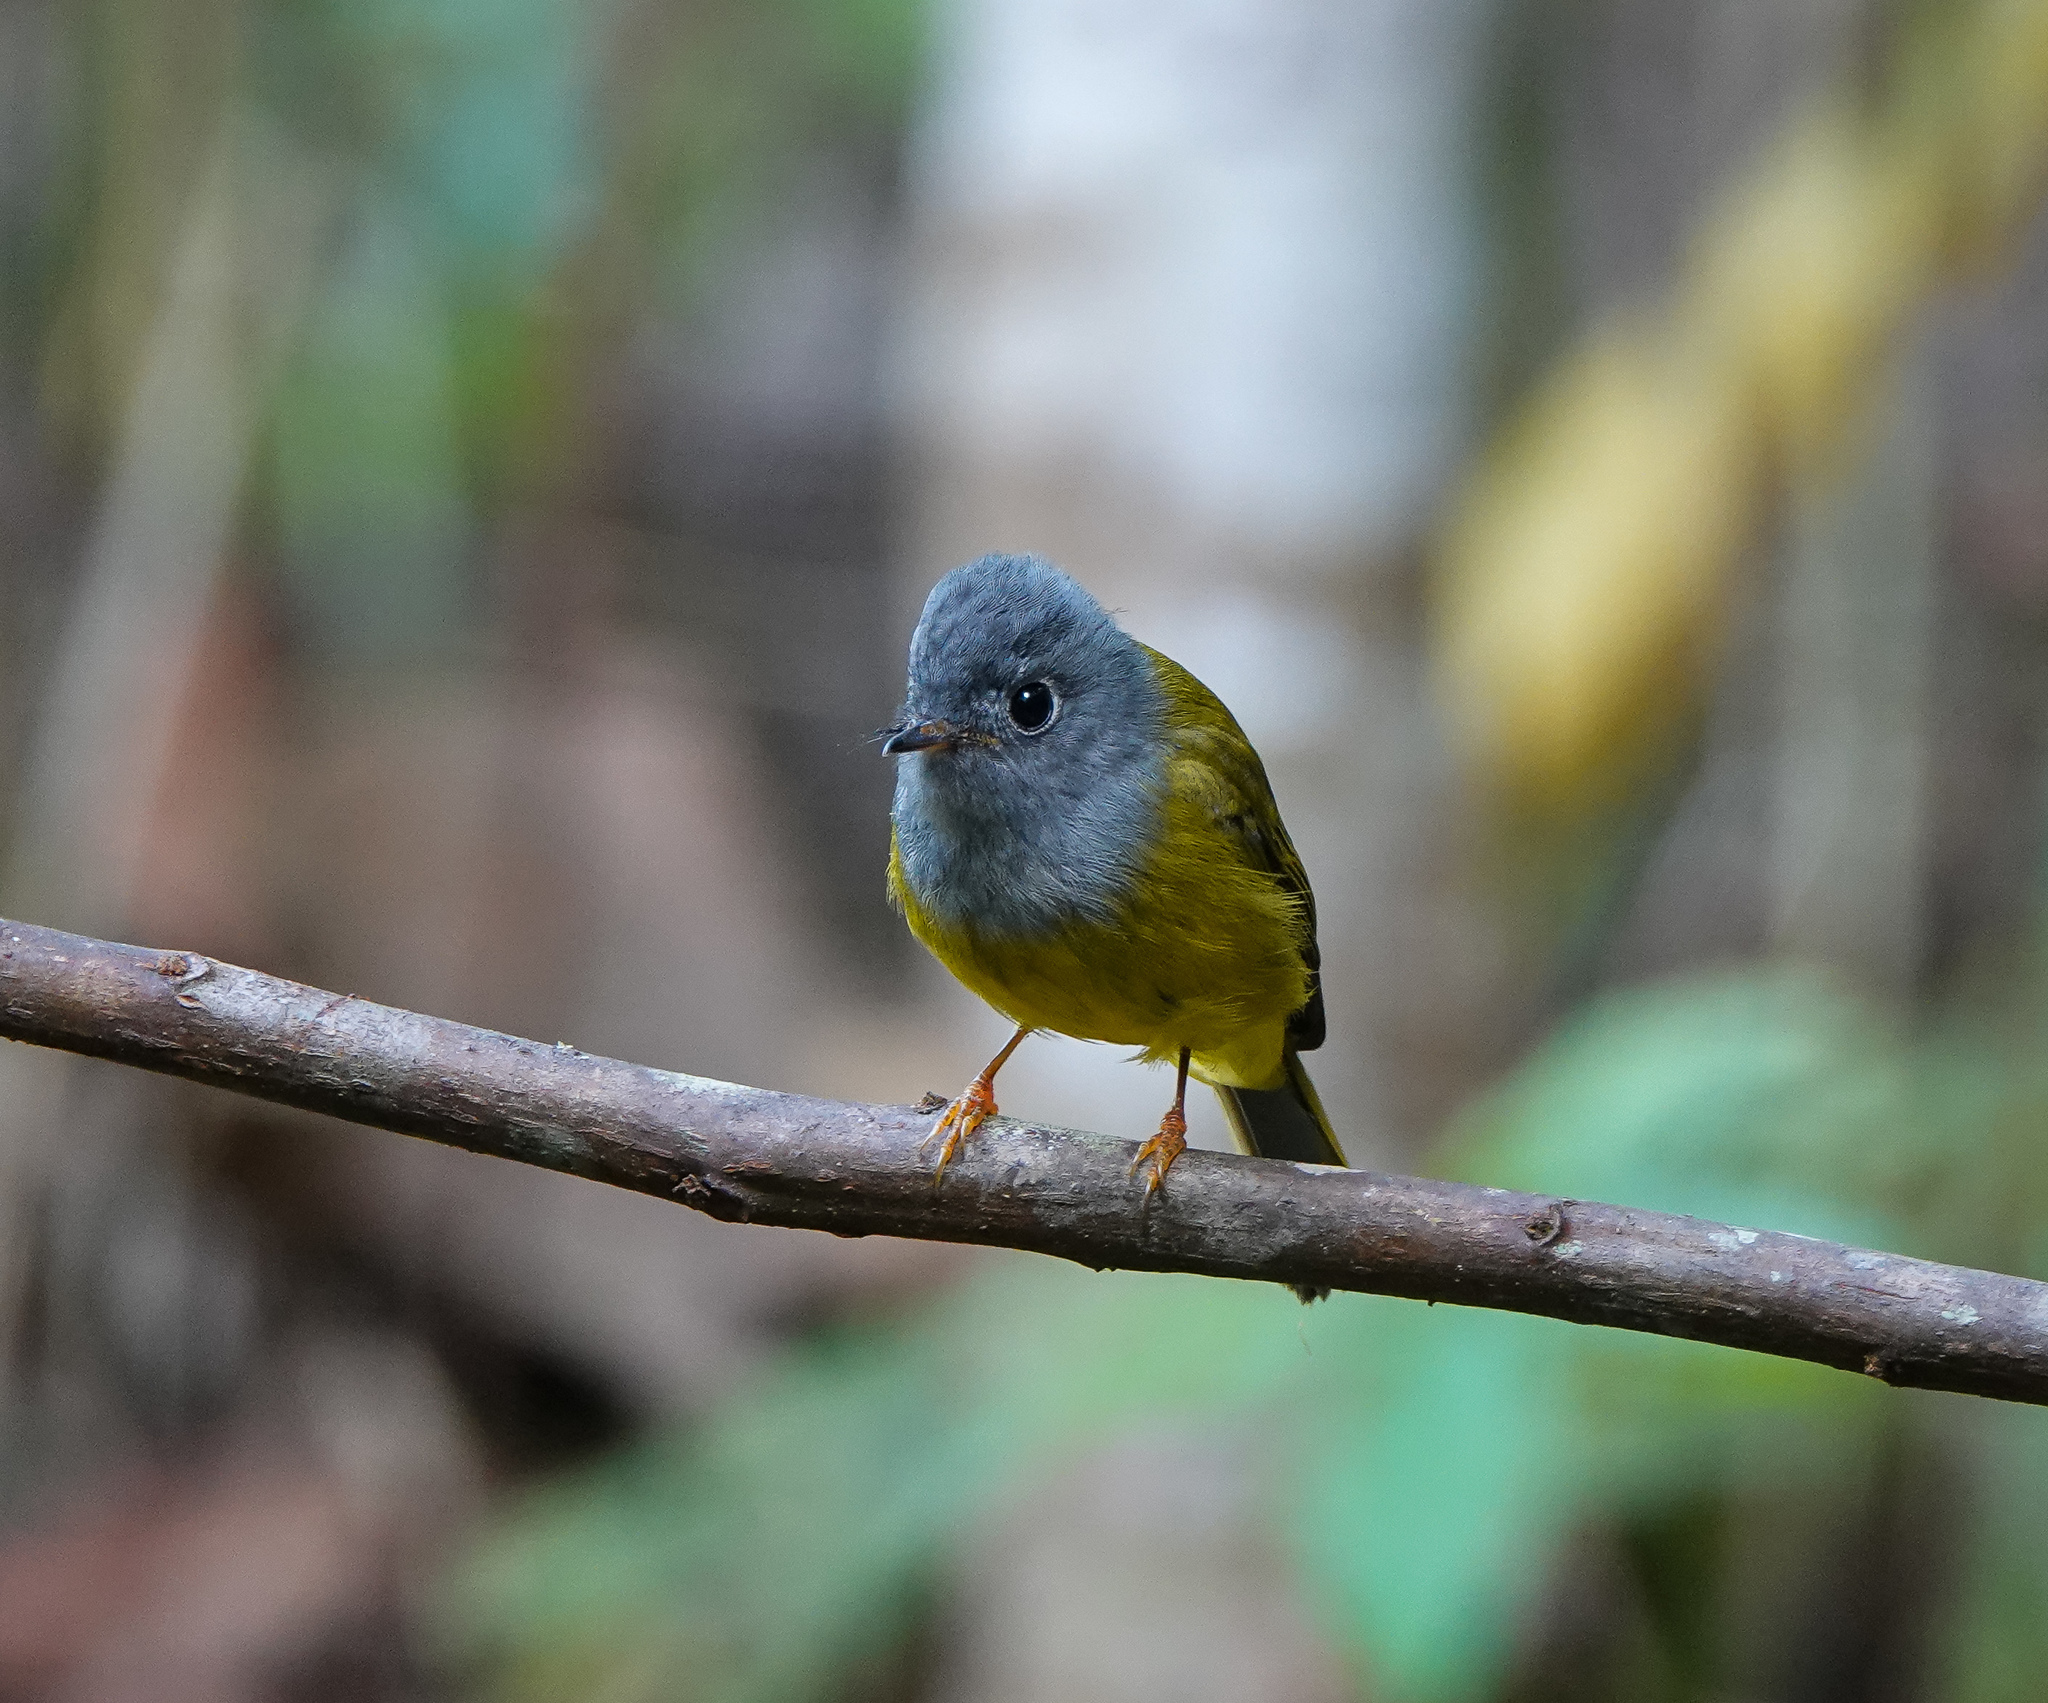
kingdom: Animalia
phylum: Chordata
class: Aves
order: Passeriformes
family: Stenostiridae
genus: Culicicapa
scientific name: Culicicapa ceylonensis
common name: Grey-headed canary-flycatcher
